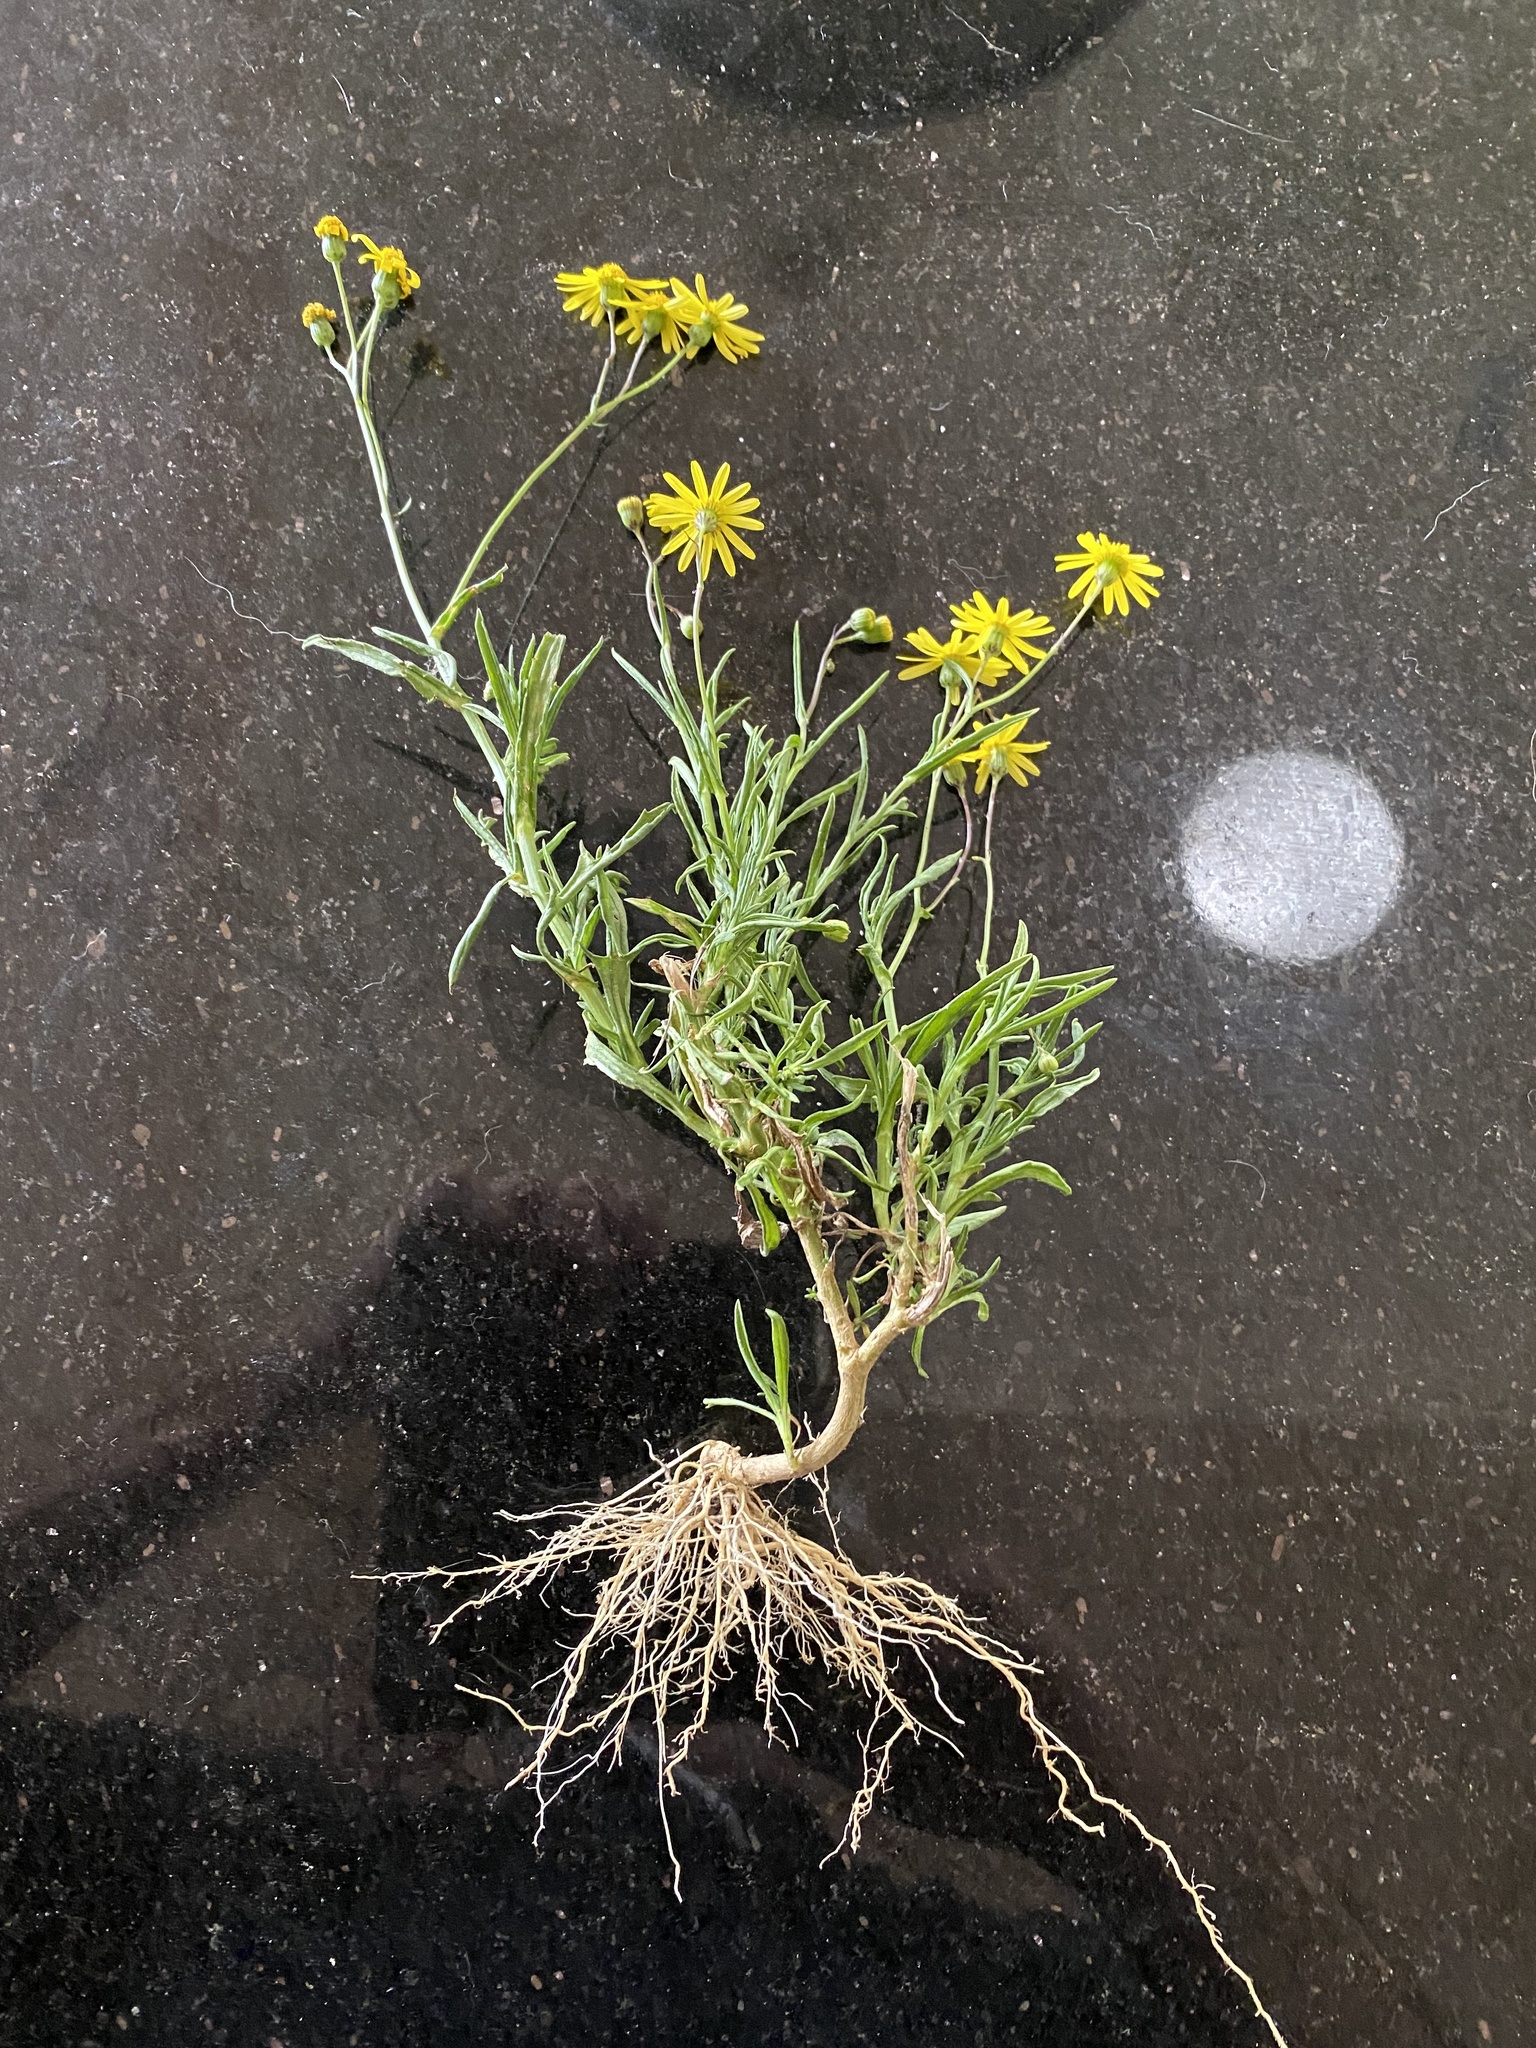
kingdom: Plantae
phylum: Tracheophyta
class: Magnoliopsida
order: Asterales
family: Asteraceae
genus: Senecio
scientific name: Senecio madagascariensis
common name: Madagascar ragwort
